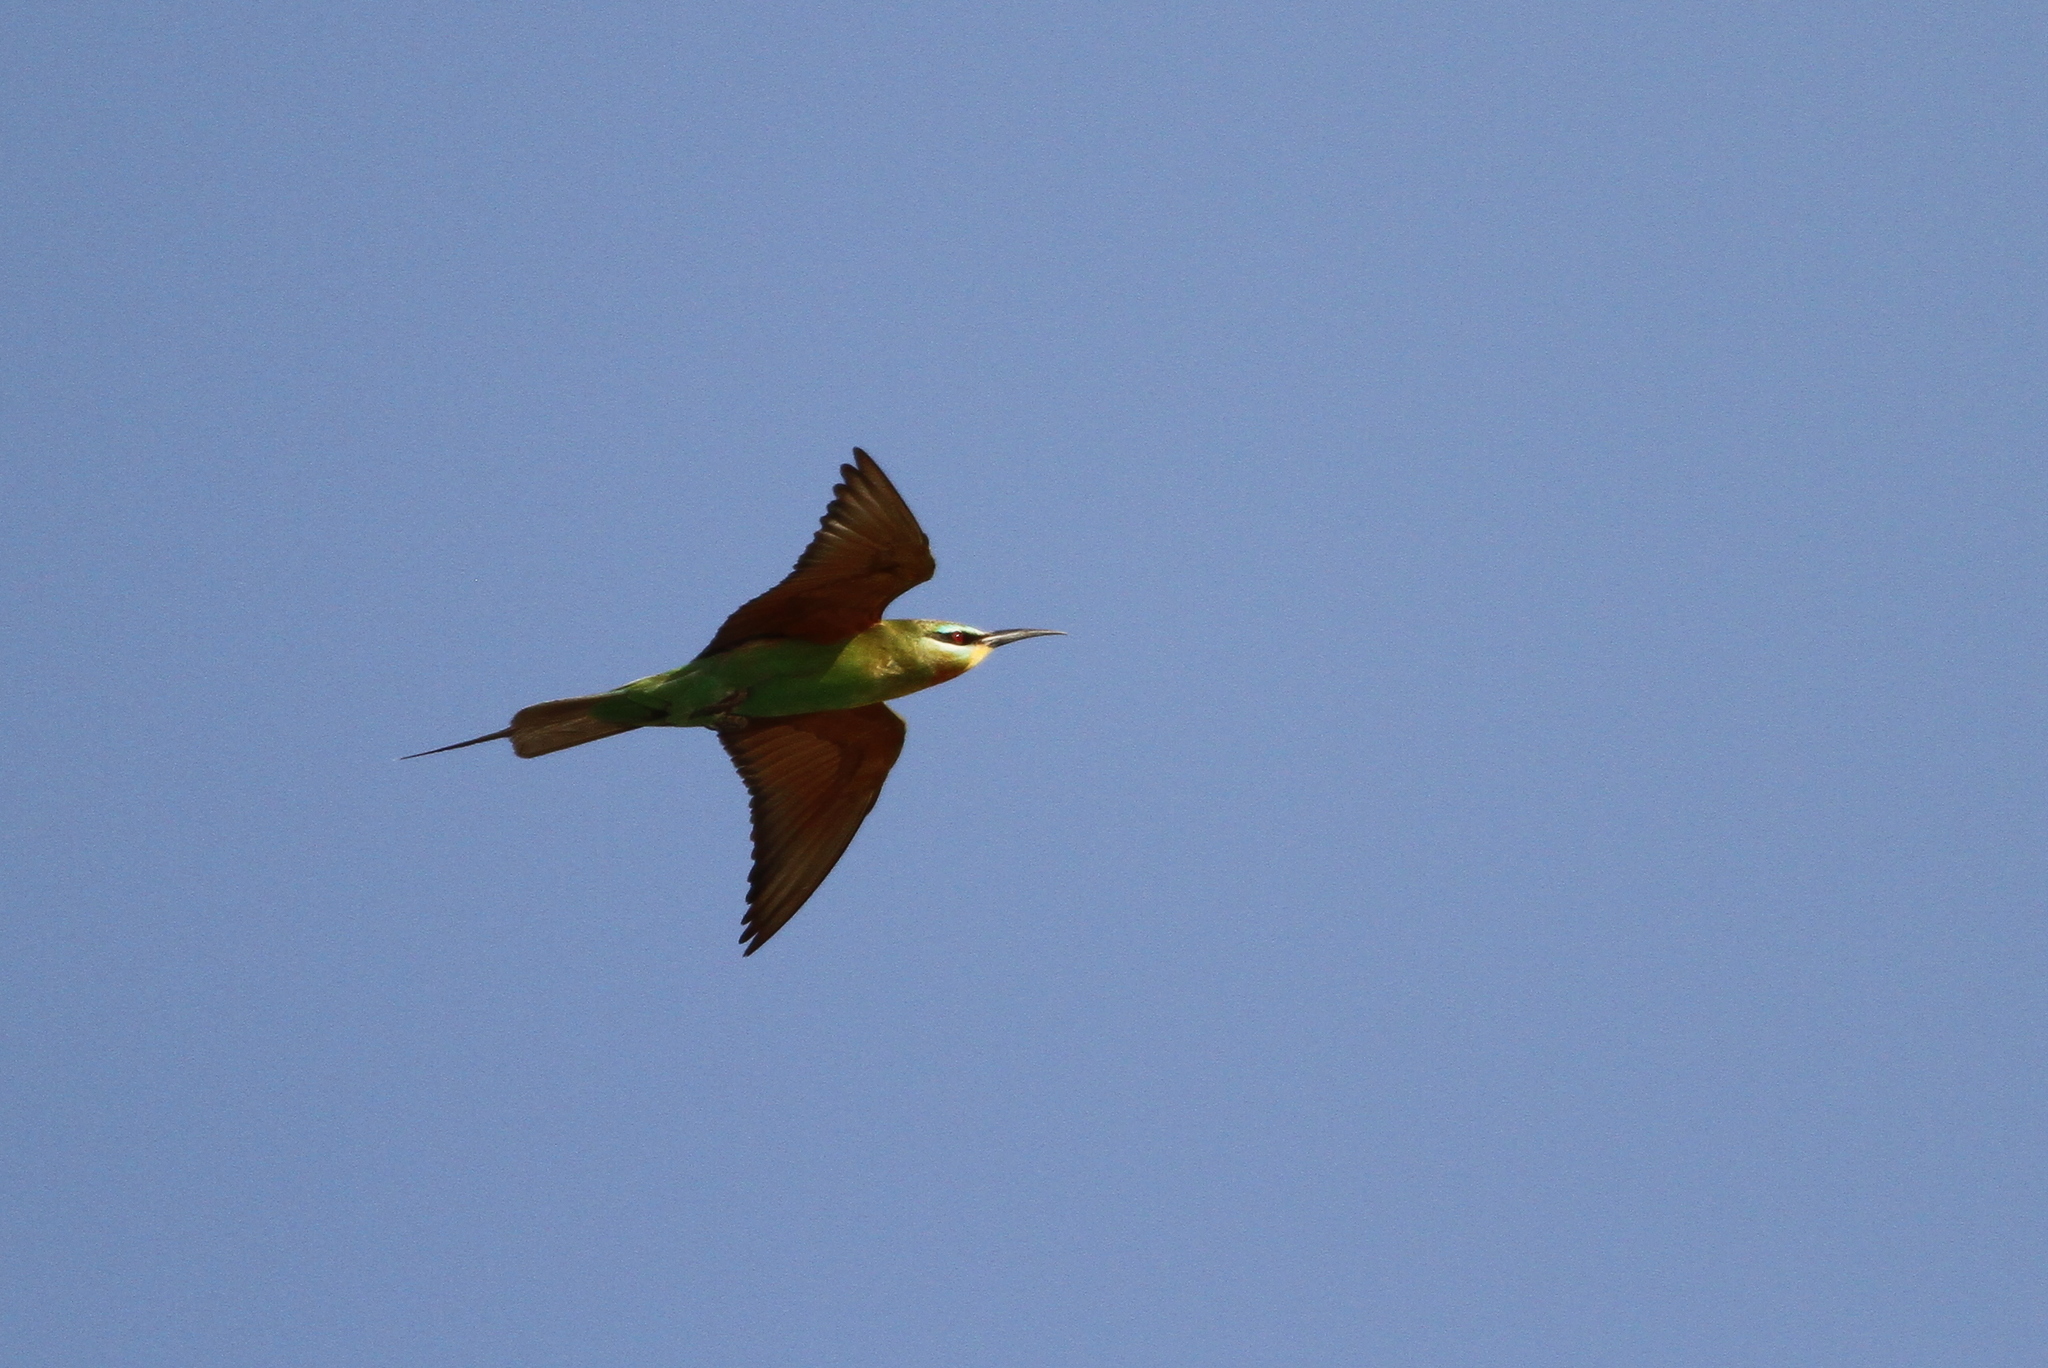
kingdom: Animalia
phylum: Chordata
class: Aves
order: Coraciiformes
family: Meropidae
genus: Merops
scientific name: Merops persicus
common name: Blue-cheeked bee-eater
